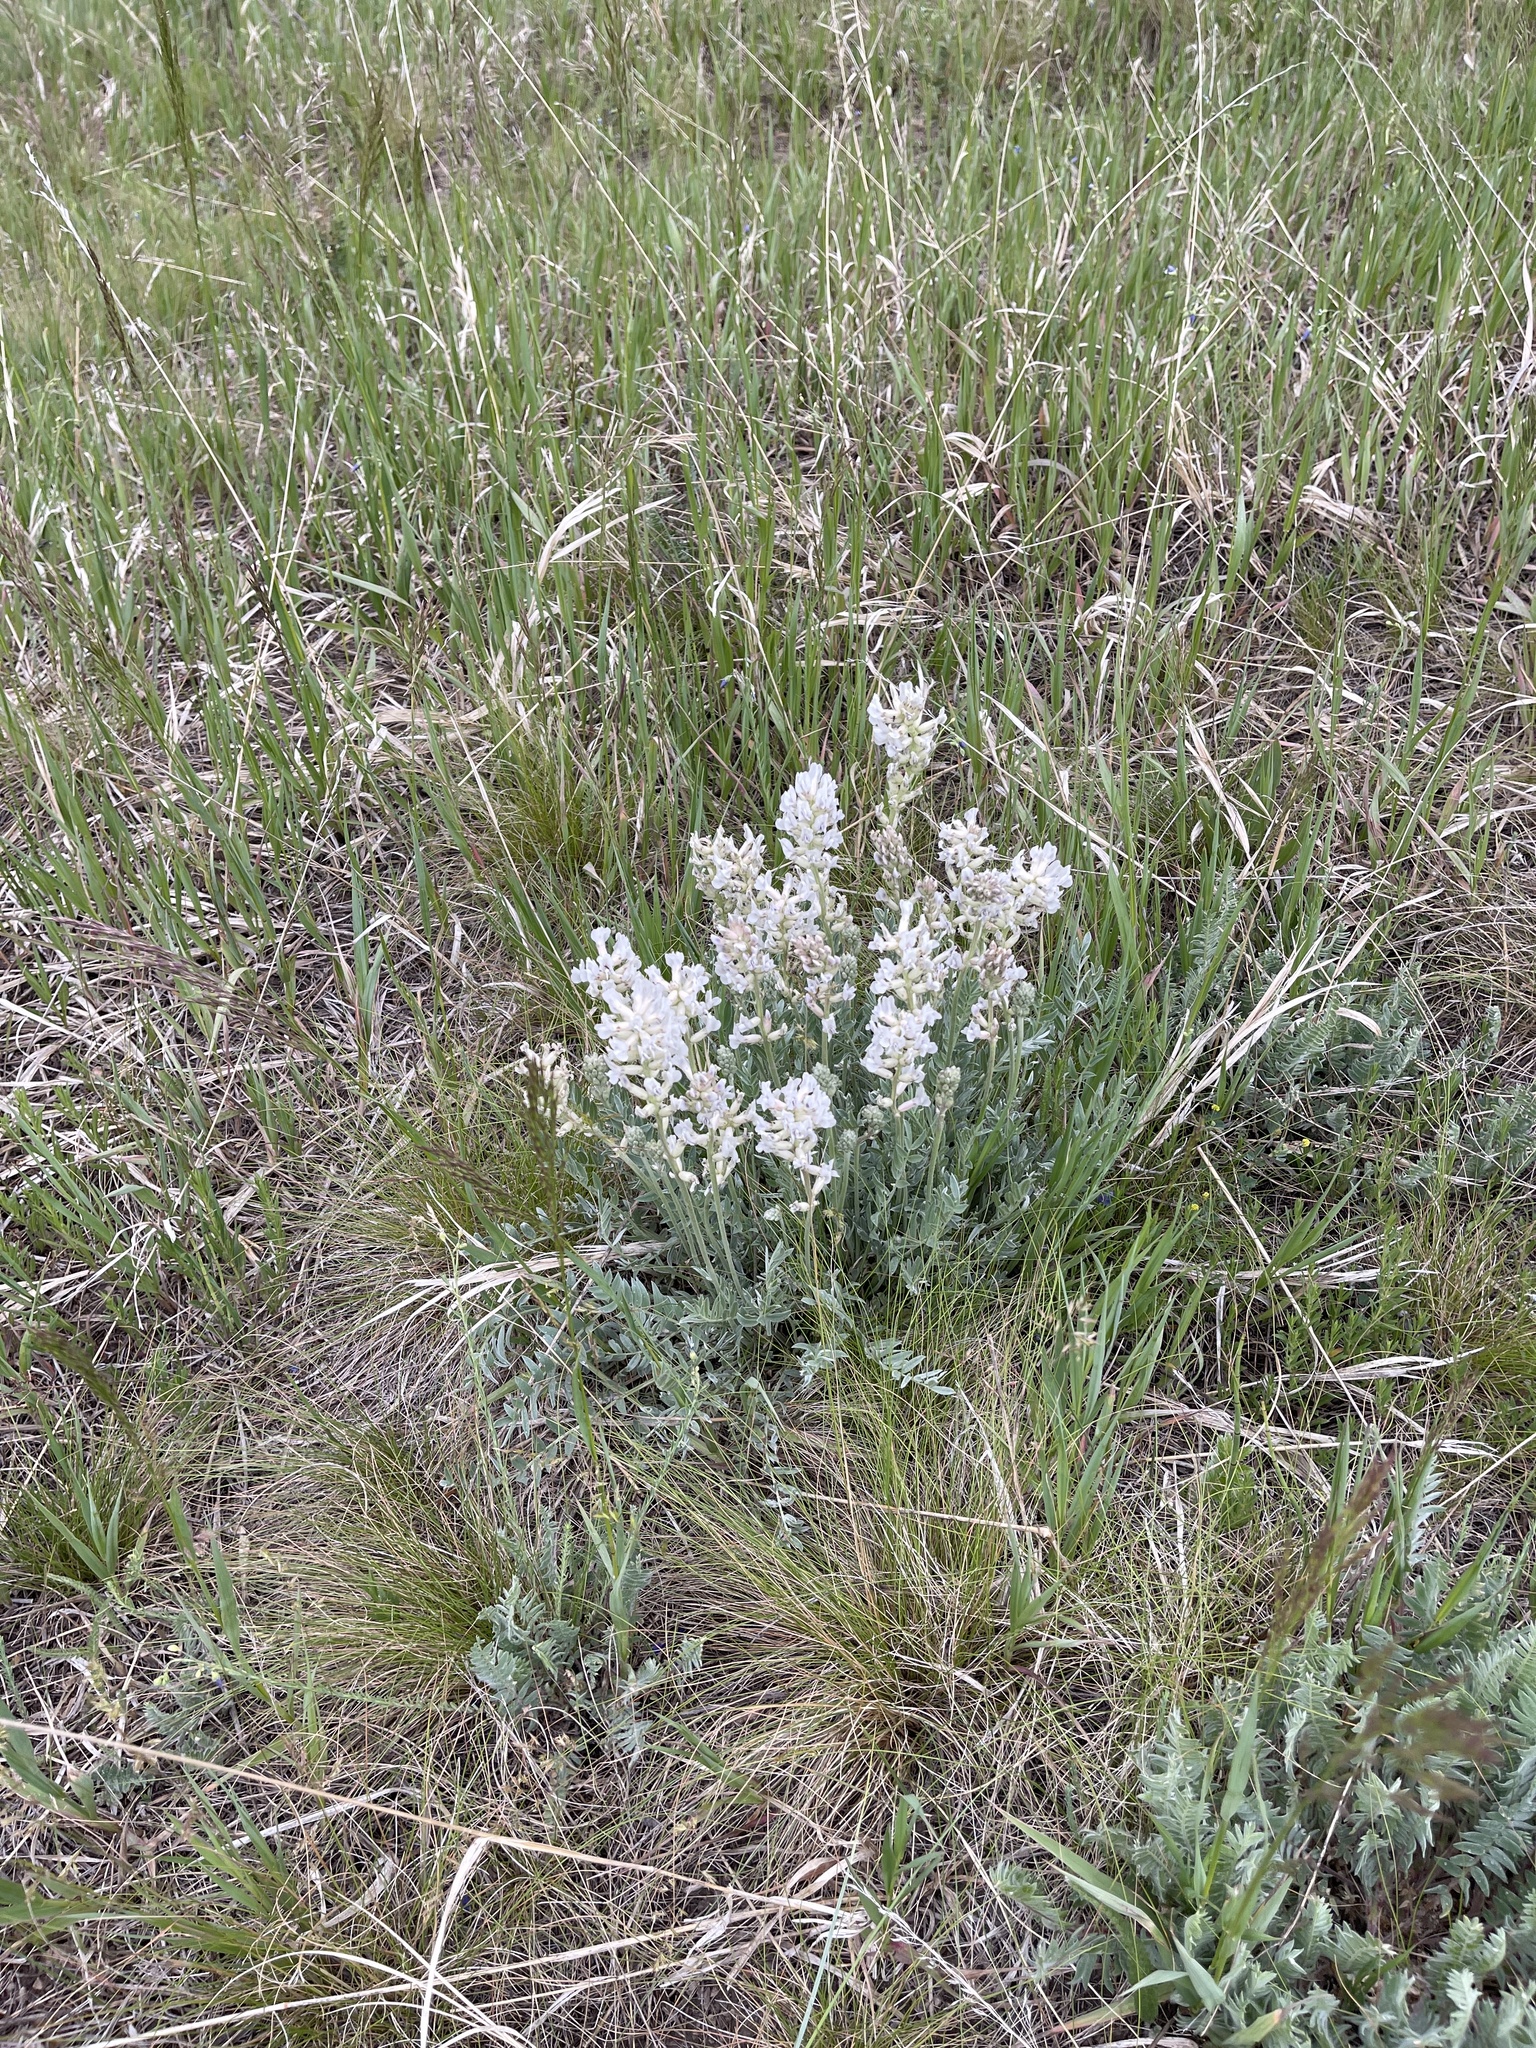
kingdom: Plantae
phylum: Tracheophyta
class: Magnoliopsida
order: Fabales
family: Fabaceae
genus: Oxytropis
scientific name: Oxytropis sericea
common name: Silky locoweed
